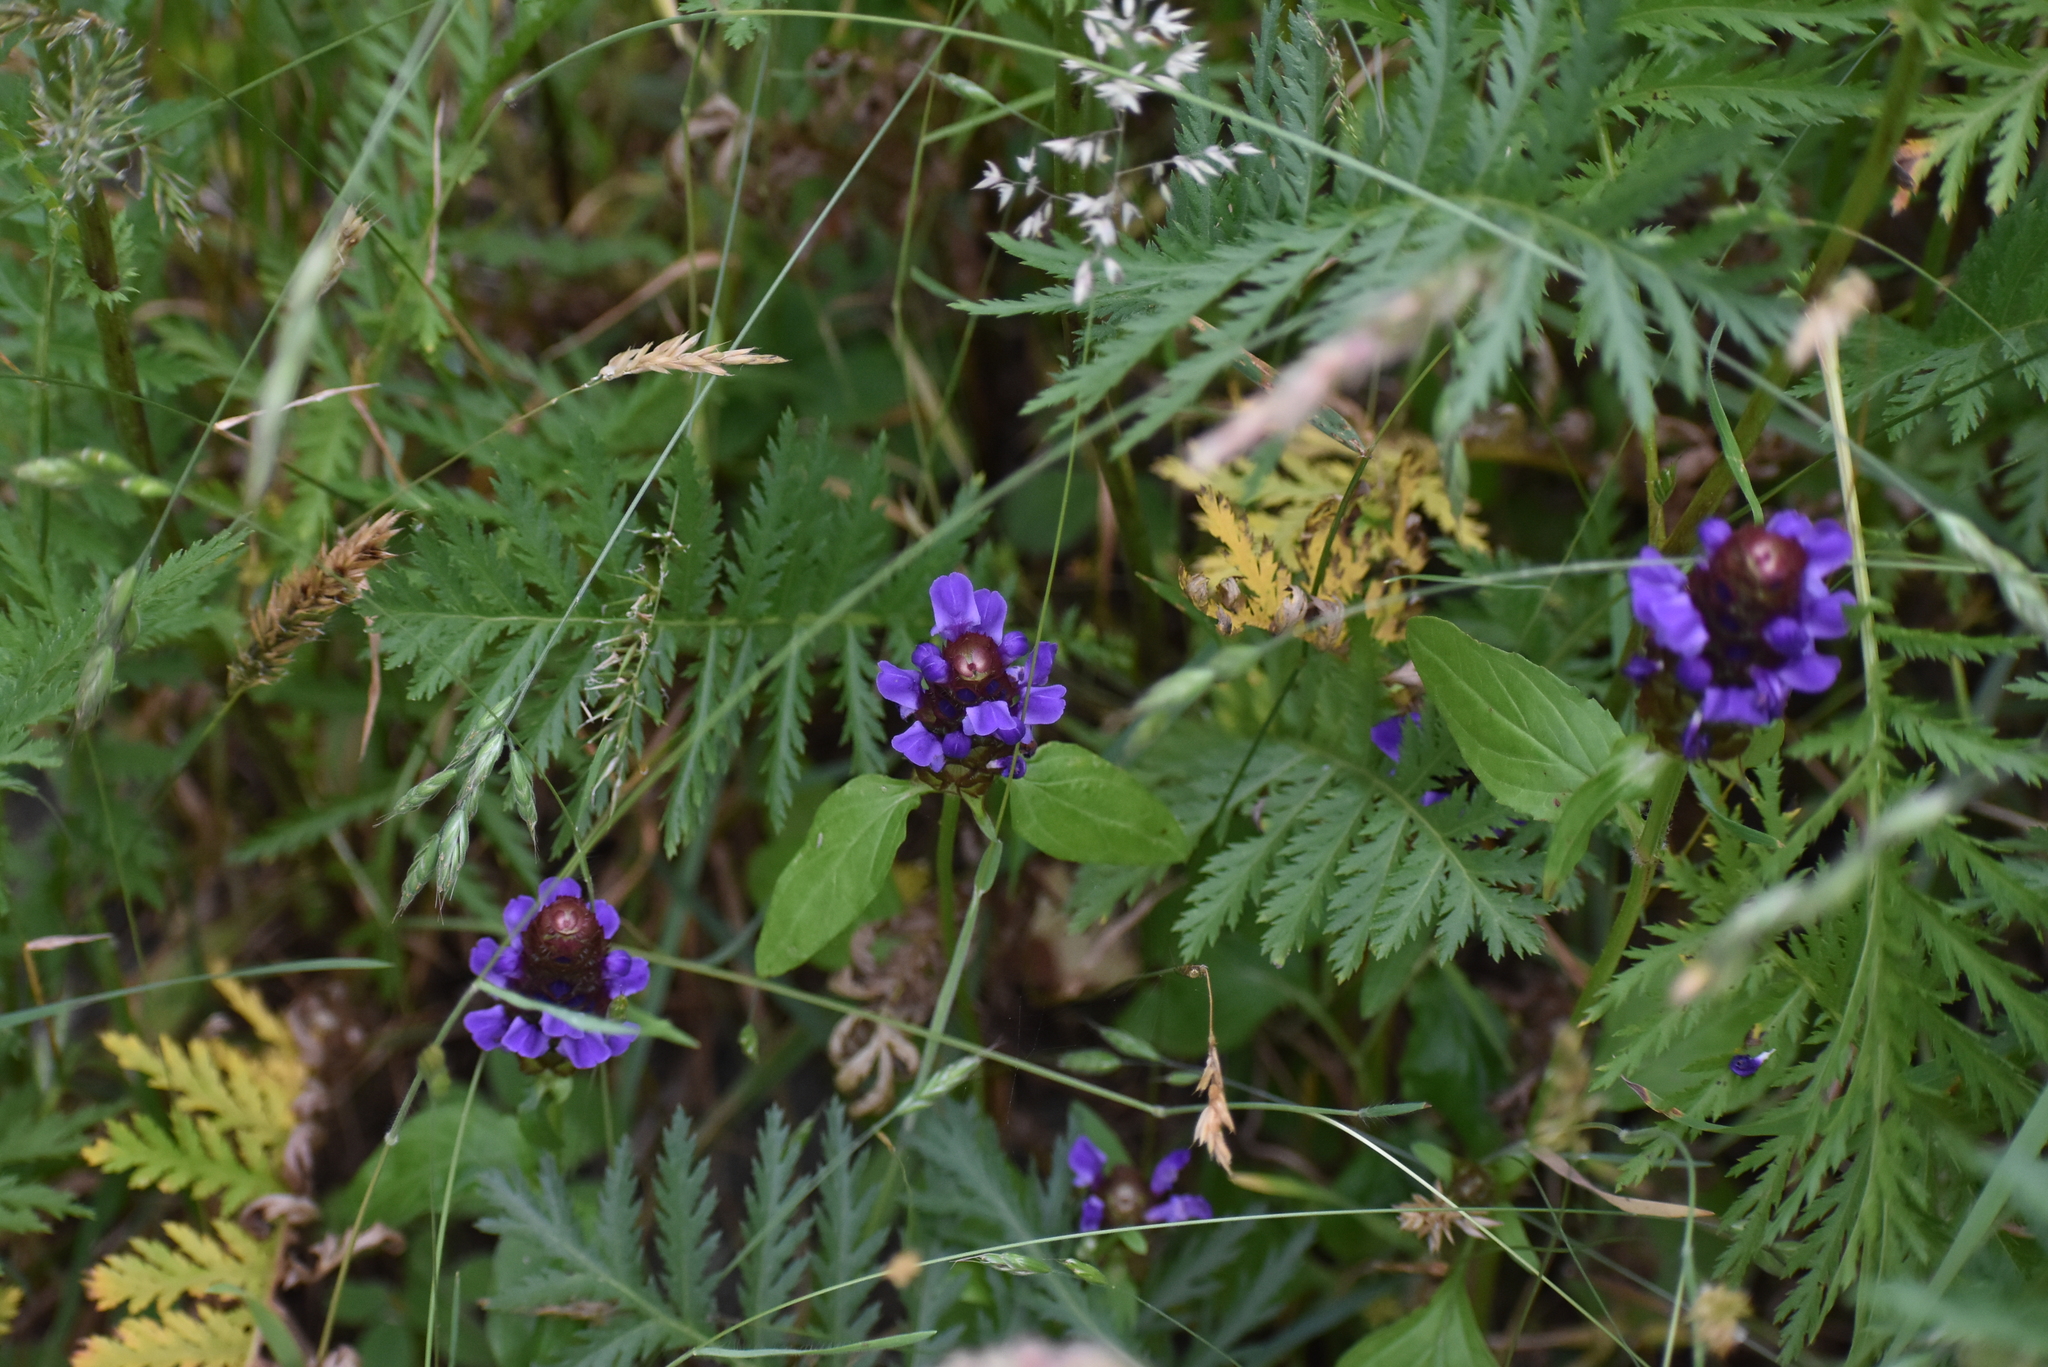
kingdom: Plantae
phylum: Tracheophyta
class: Magnoliopsida
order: Lamiales
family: Lamiaceae
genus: Prunella
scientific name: Prunella vulgaris
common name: Heal-all
